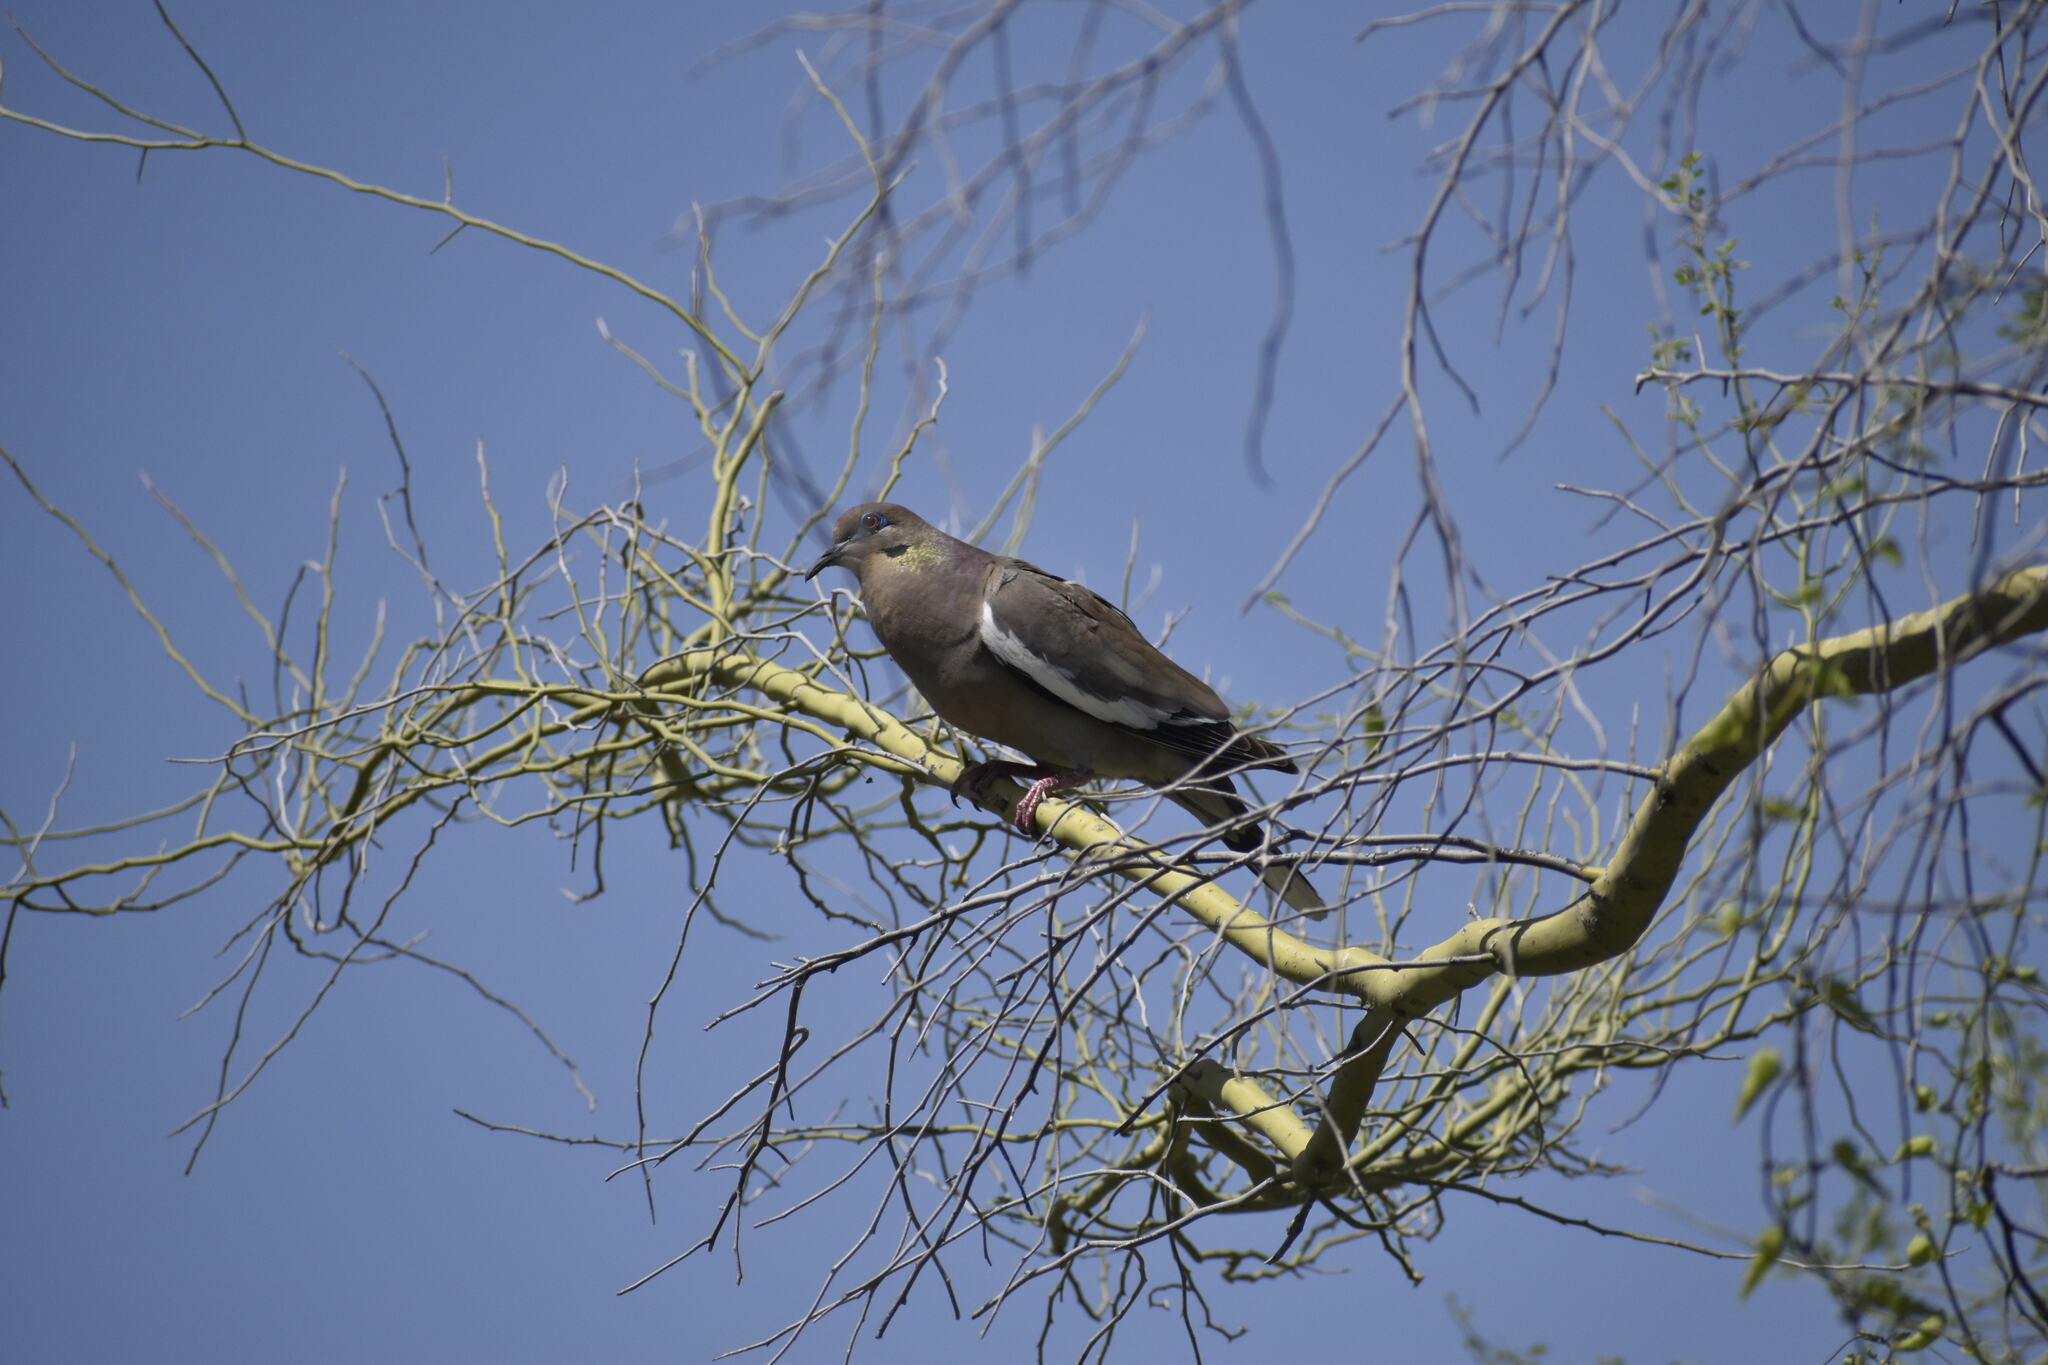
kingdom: Animalia
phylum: Chordata
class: Aves
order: Columbiformes
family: Columbidae
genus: Zenaida
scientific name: Zenaida asiatica
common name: White-winged dove
